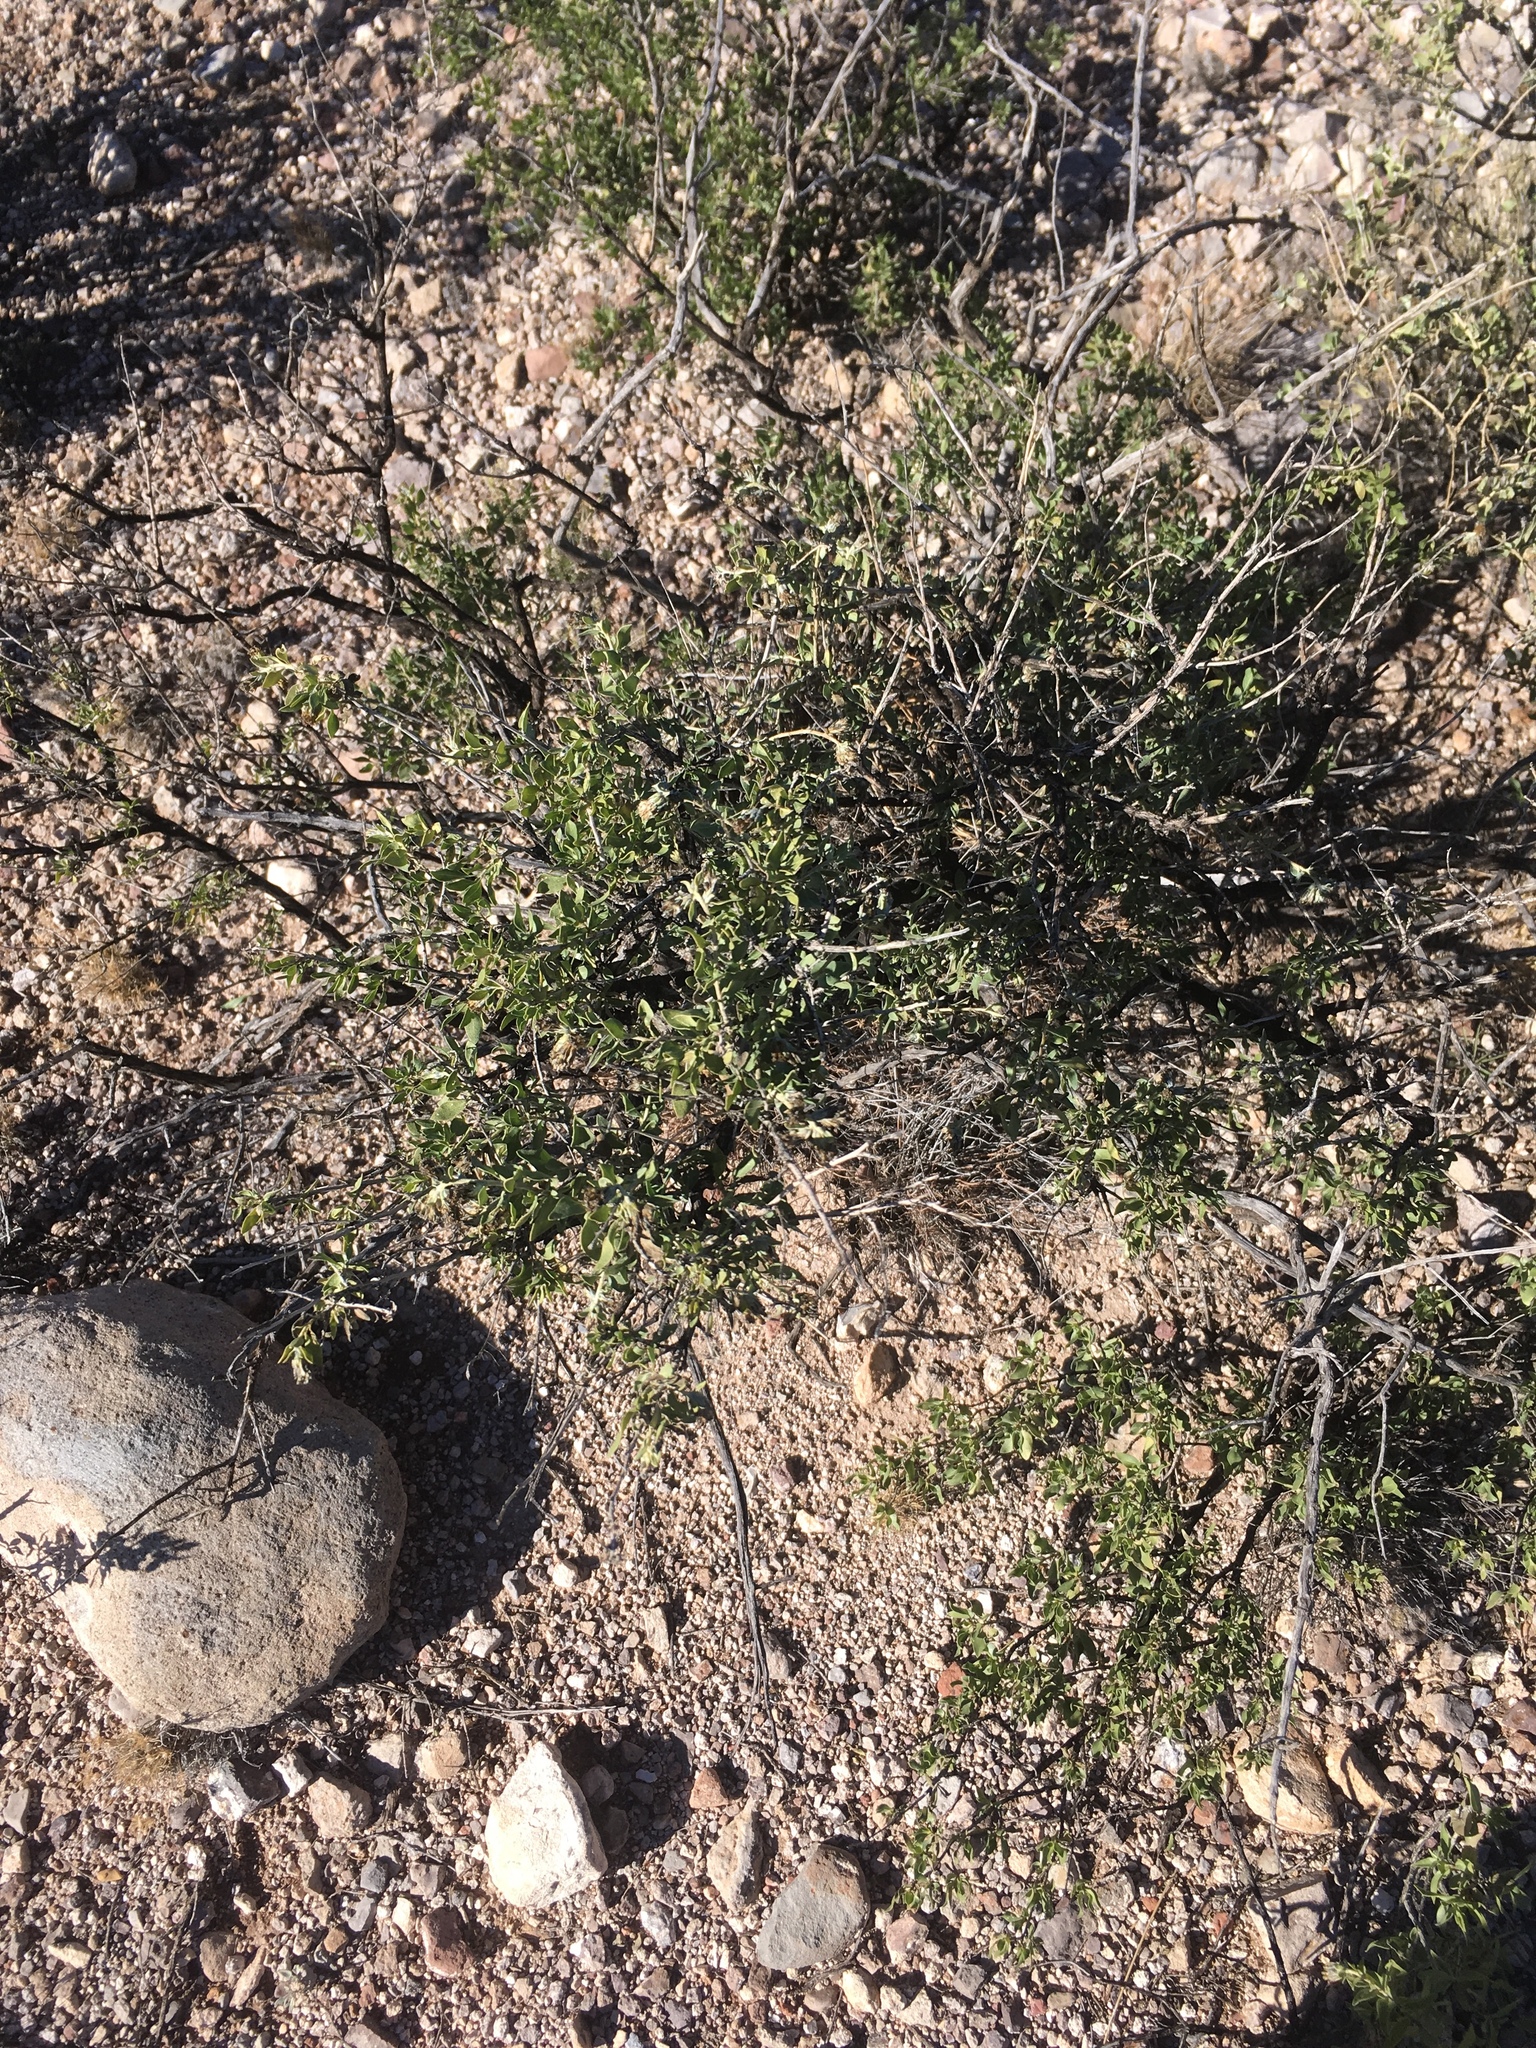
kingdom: Plantae
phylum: Tracheophyta
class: Magnoliopsida
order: Asterales
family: Asteraceae
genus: Flourensia
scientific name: Flourensia cernua
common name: Varnishbush
